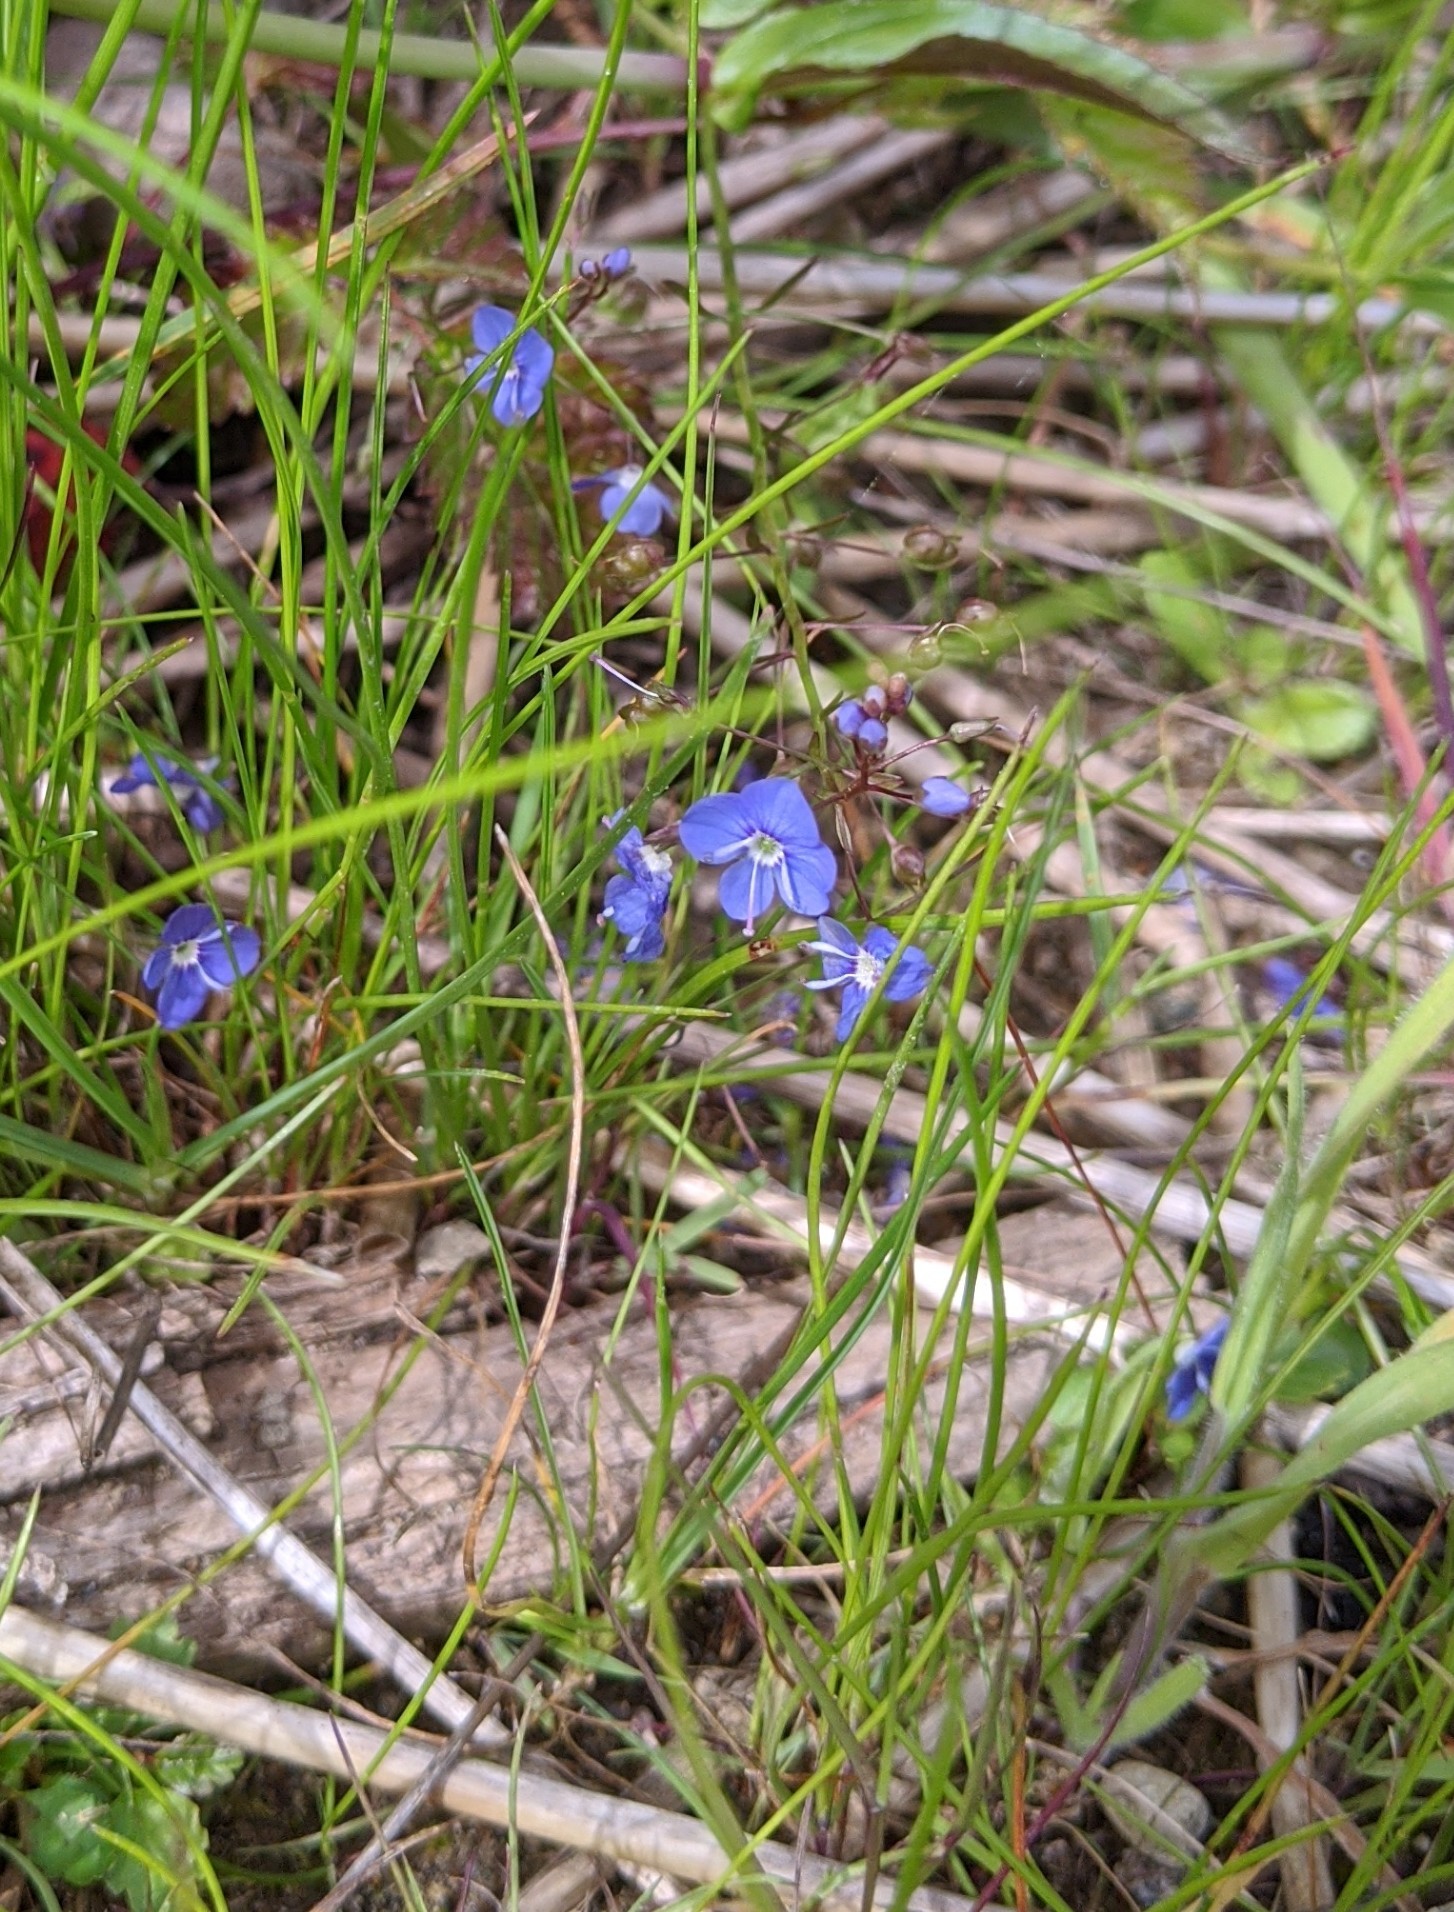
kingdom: Plantae
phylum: Tracheophyta
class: Magnoliopsida
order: Lamiales
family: Plantaginaceae
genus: Veronica
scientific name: Veronica americana
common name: American brooklime
